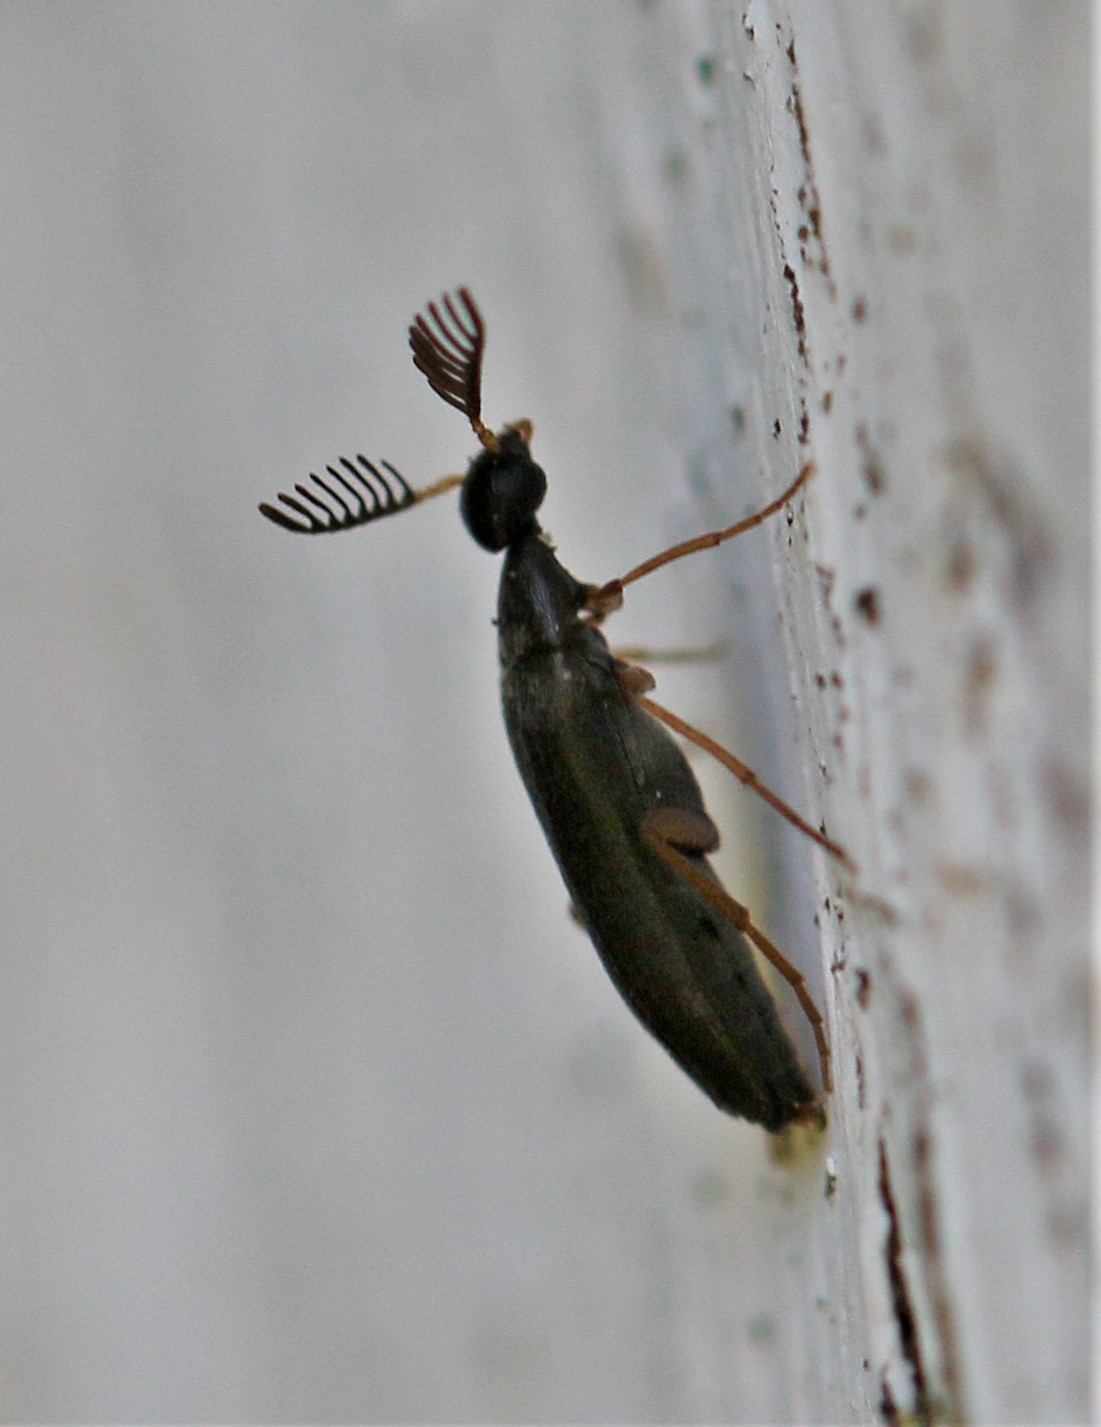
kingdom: Animalia
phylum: Arthropoda
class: Insecta
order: Coleoptera
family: Ripiphoridae
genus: Pelecotoma
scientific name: Pelecotoma flavipes
